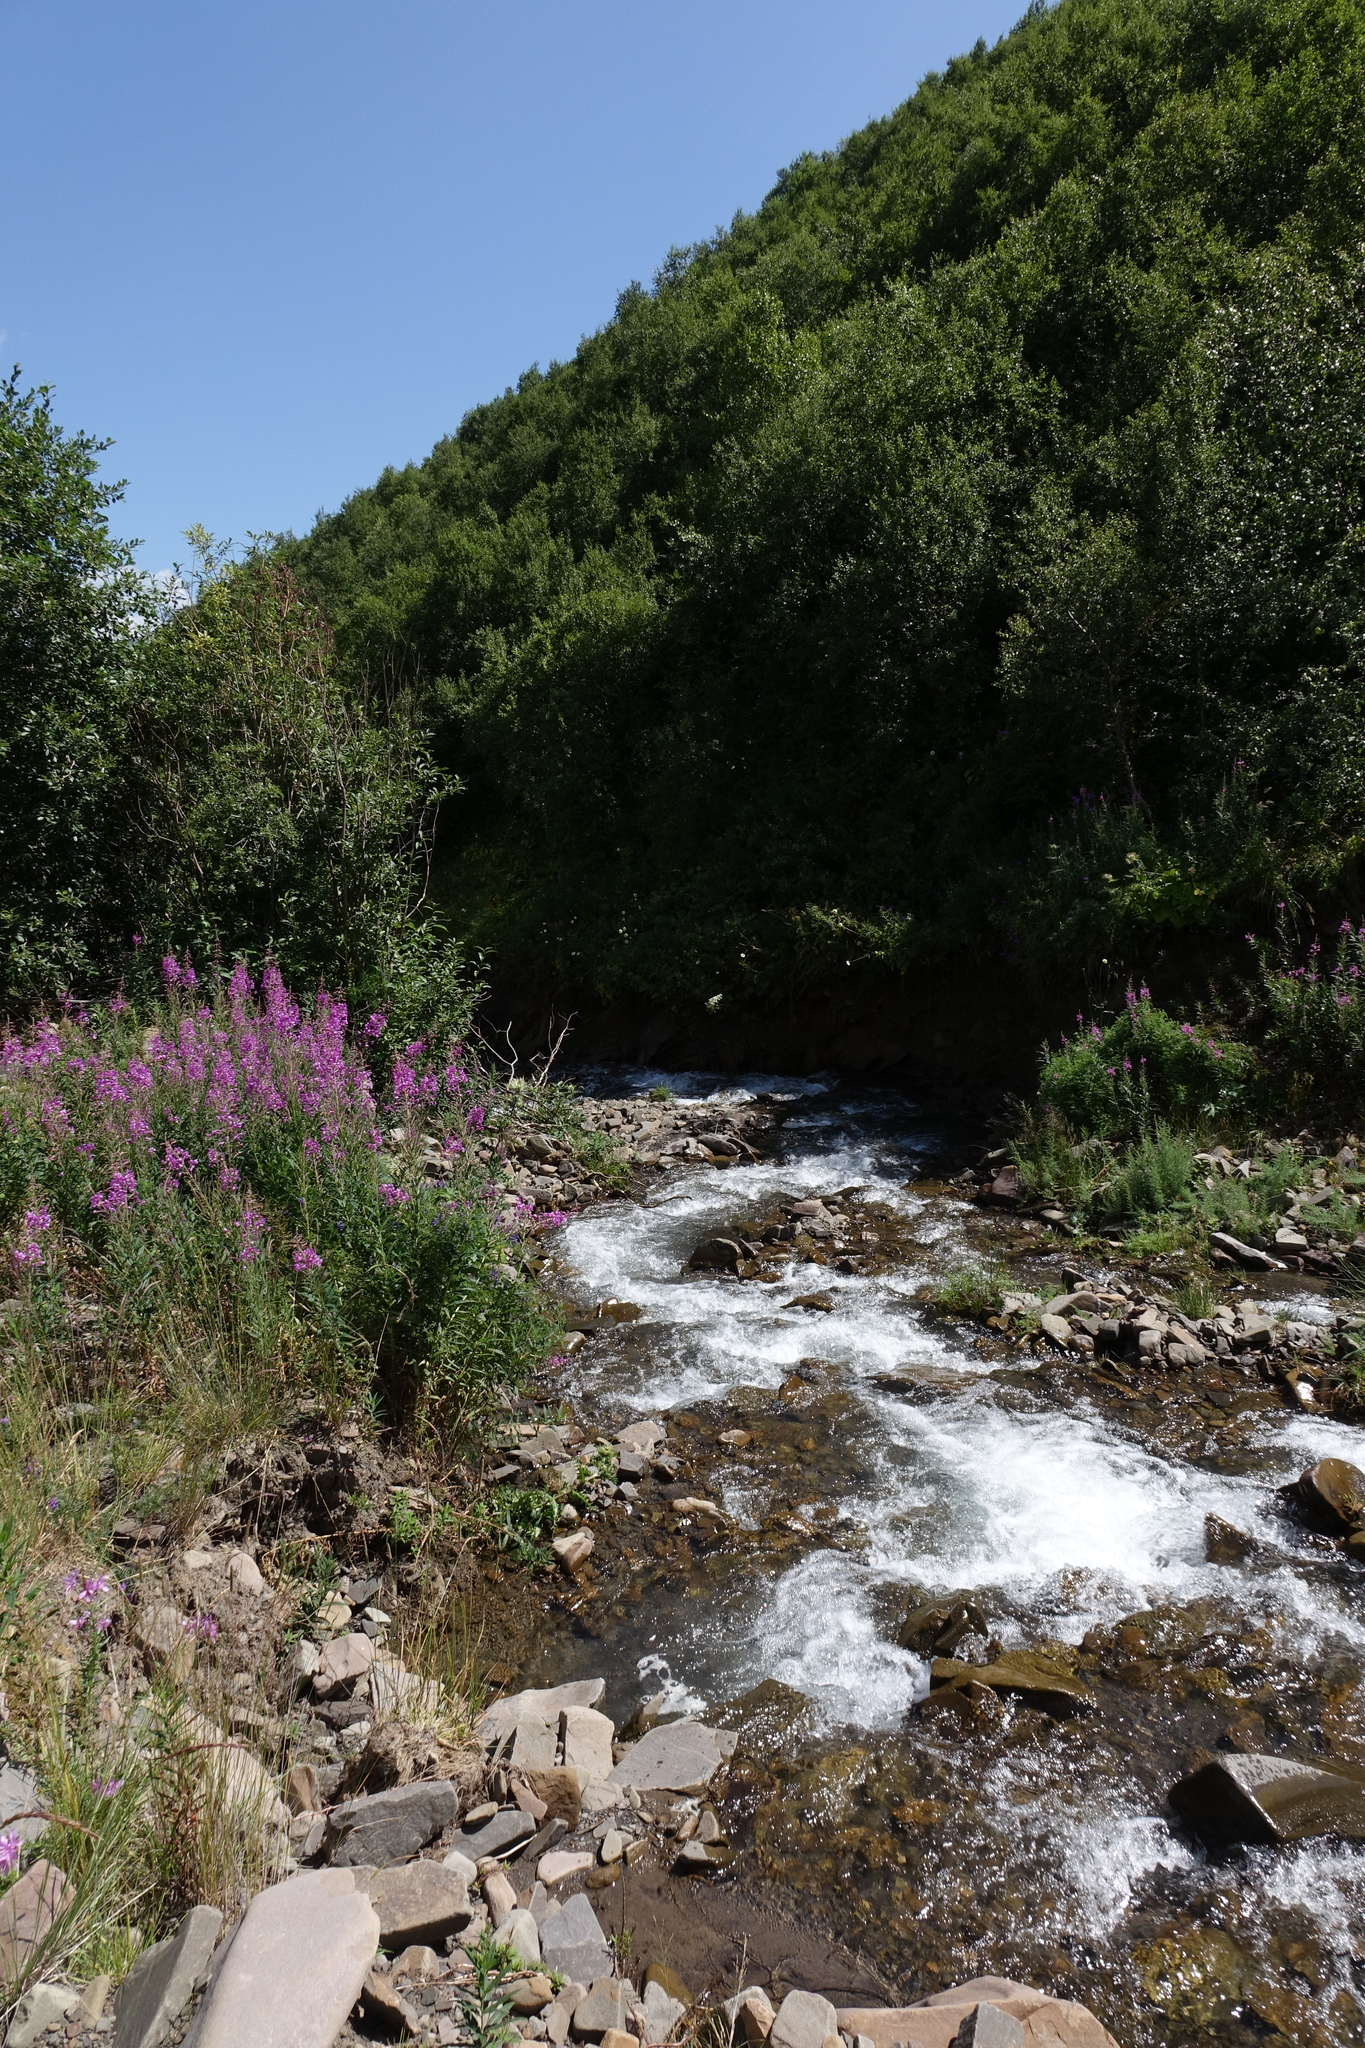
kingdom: Plantae
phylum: Tracheophyta
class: Magnoliopsida
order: Myrtales
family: Onagraceae
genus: Chamaenerion
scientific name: Chamaenerion angustifolium
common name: Fireweed
